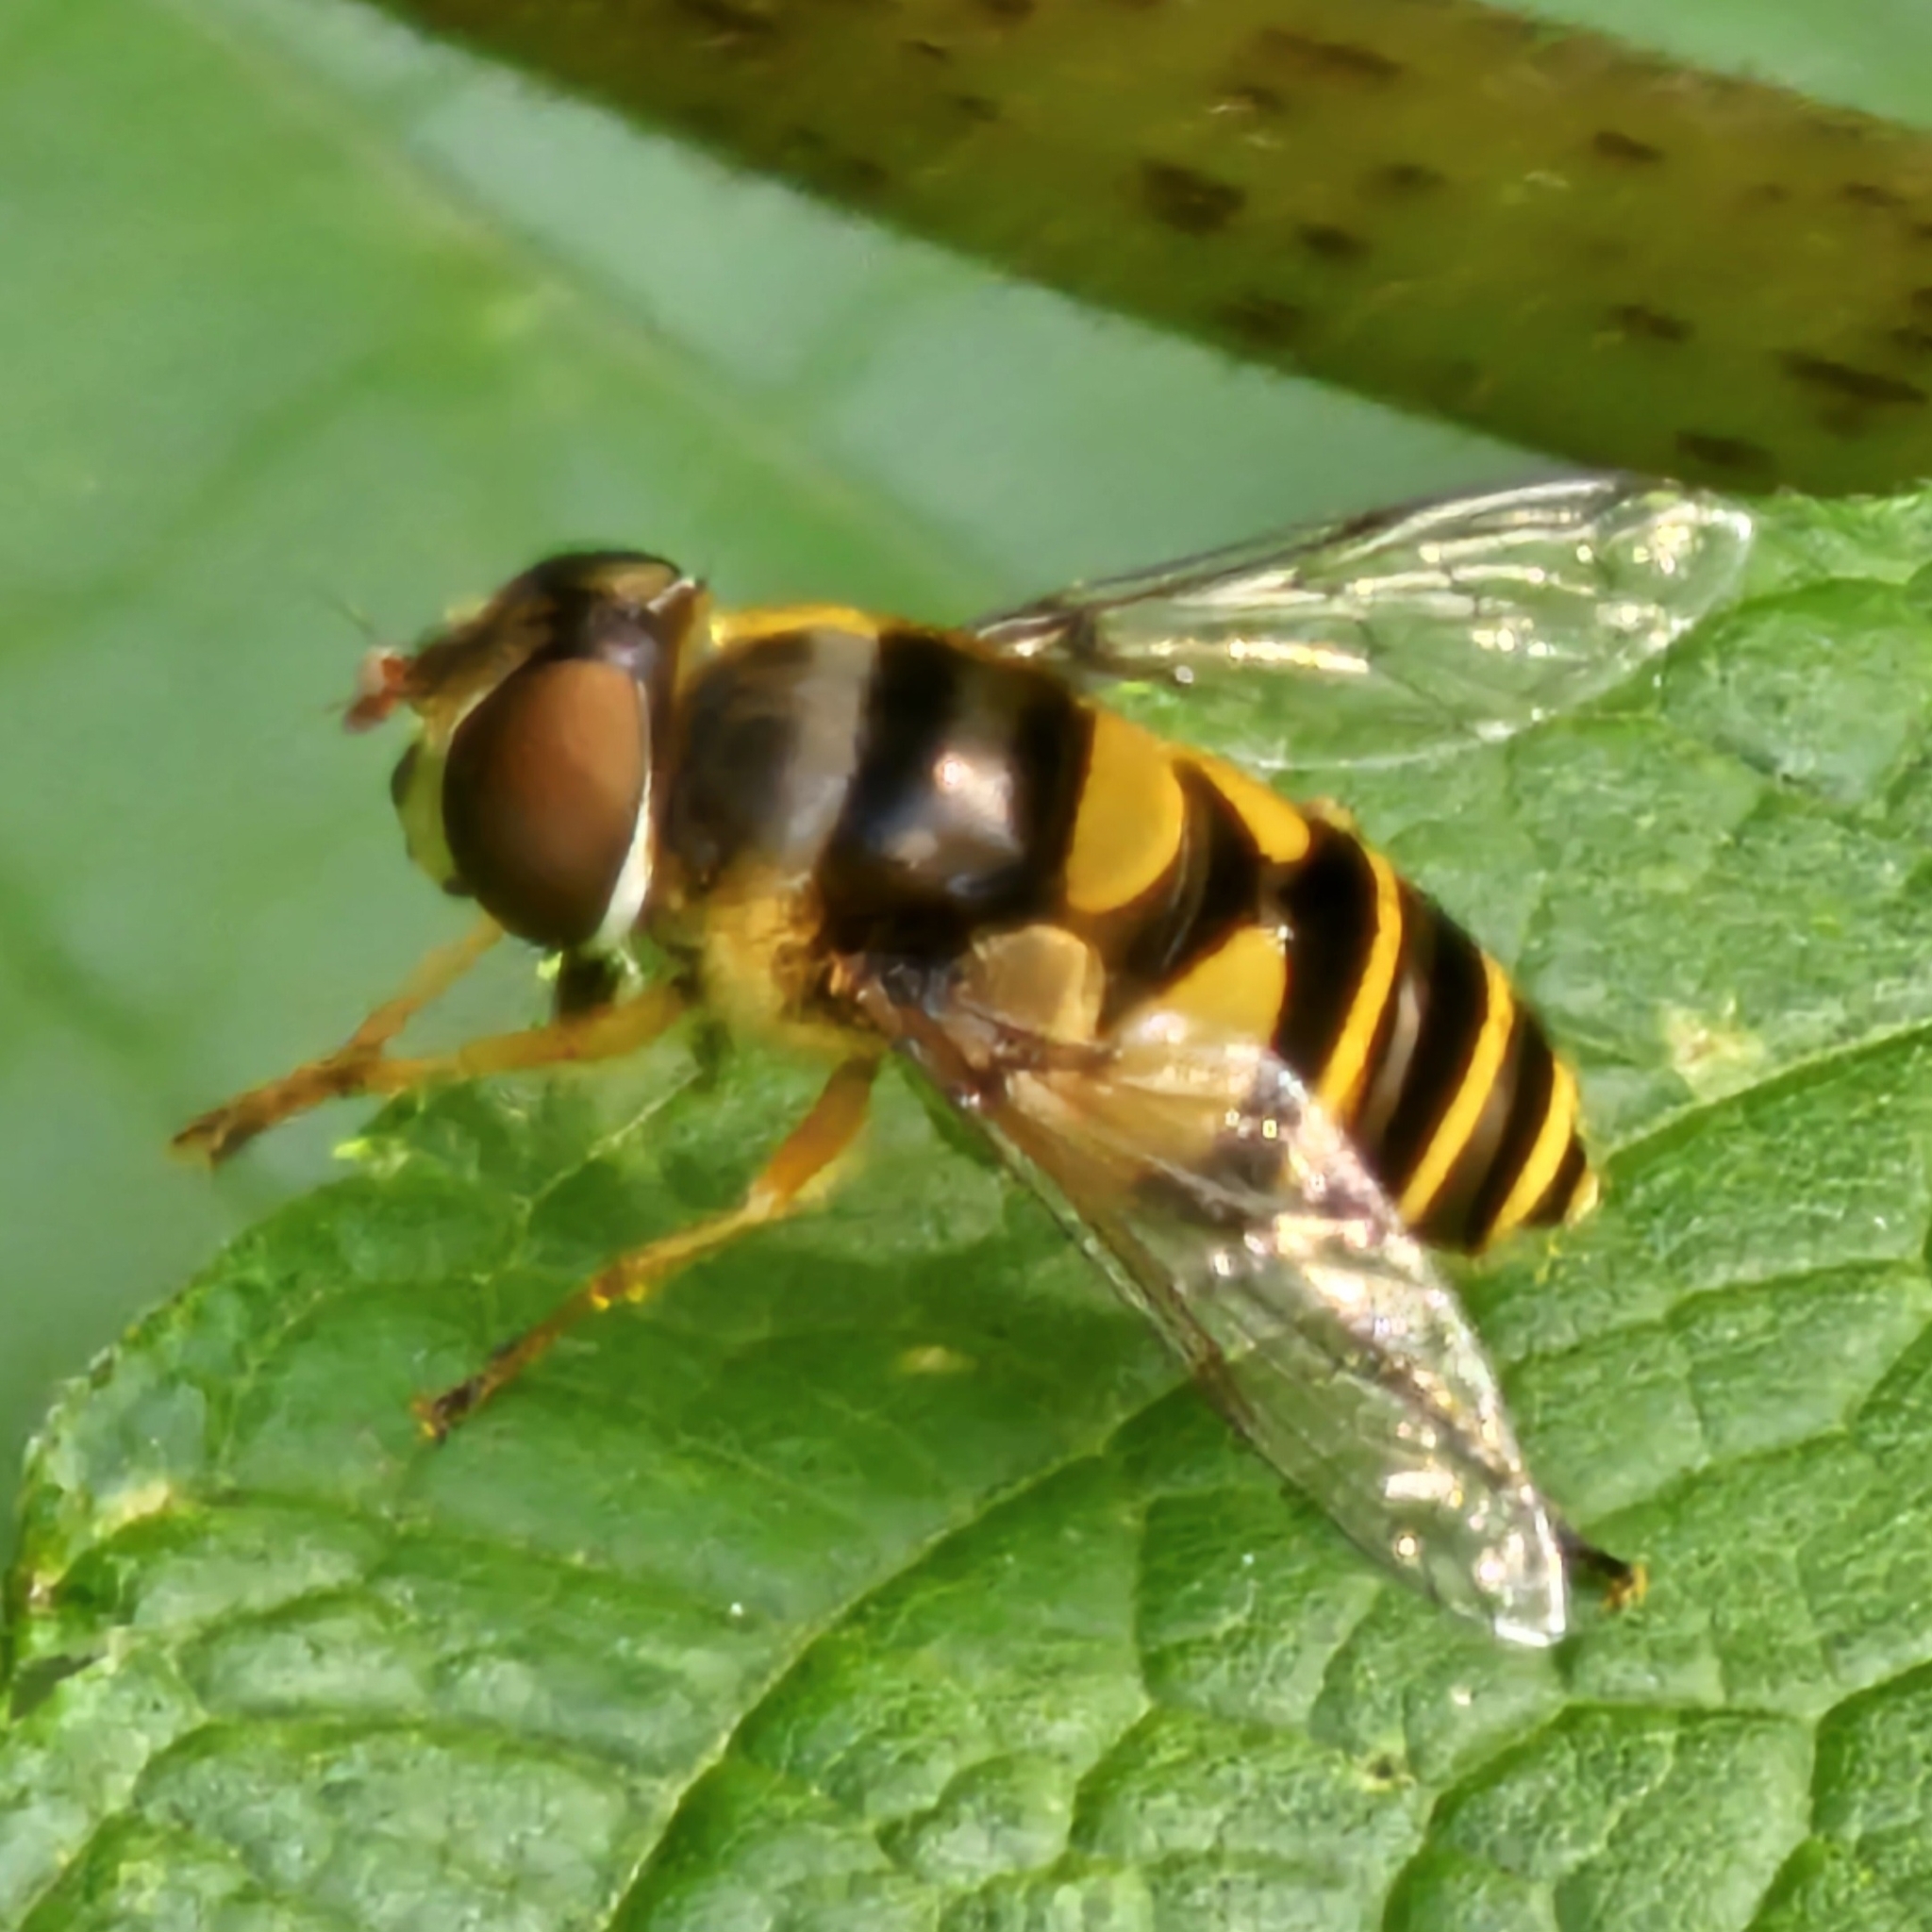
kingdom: Animalia
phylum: Arthropoda
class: Insecta
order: Diptera
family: Syrphidae
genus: Eristalis
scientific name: Eristalis transversa
